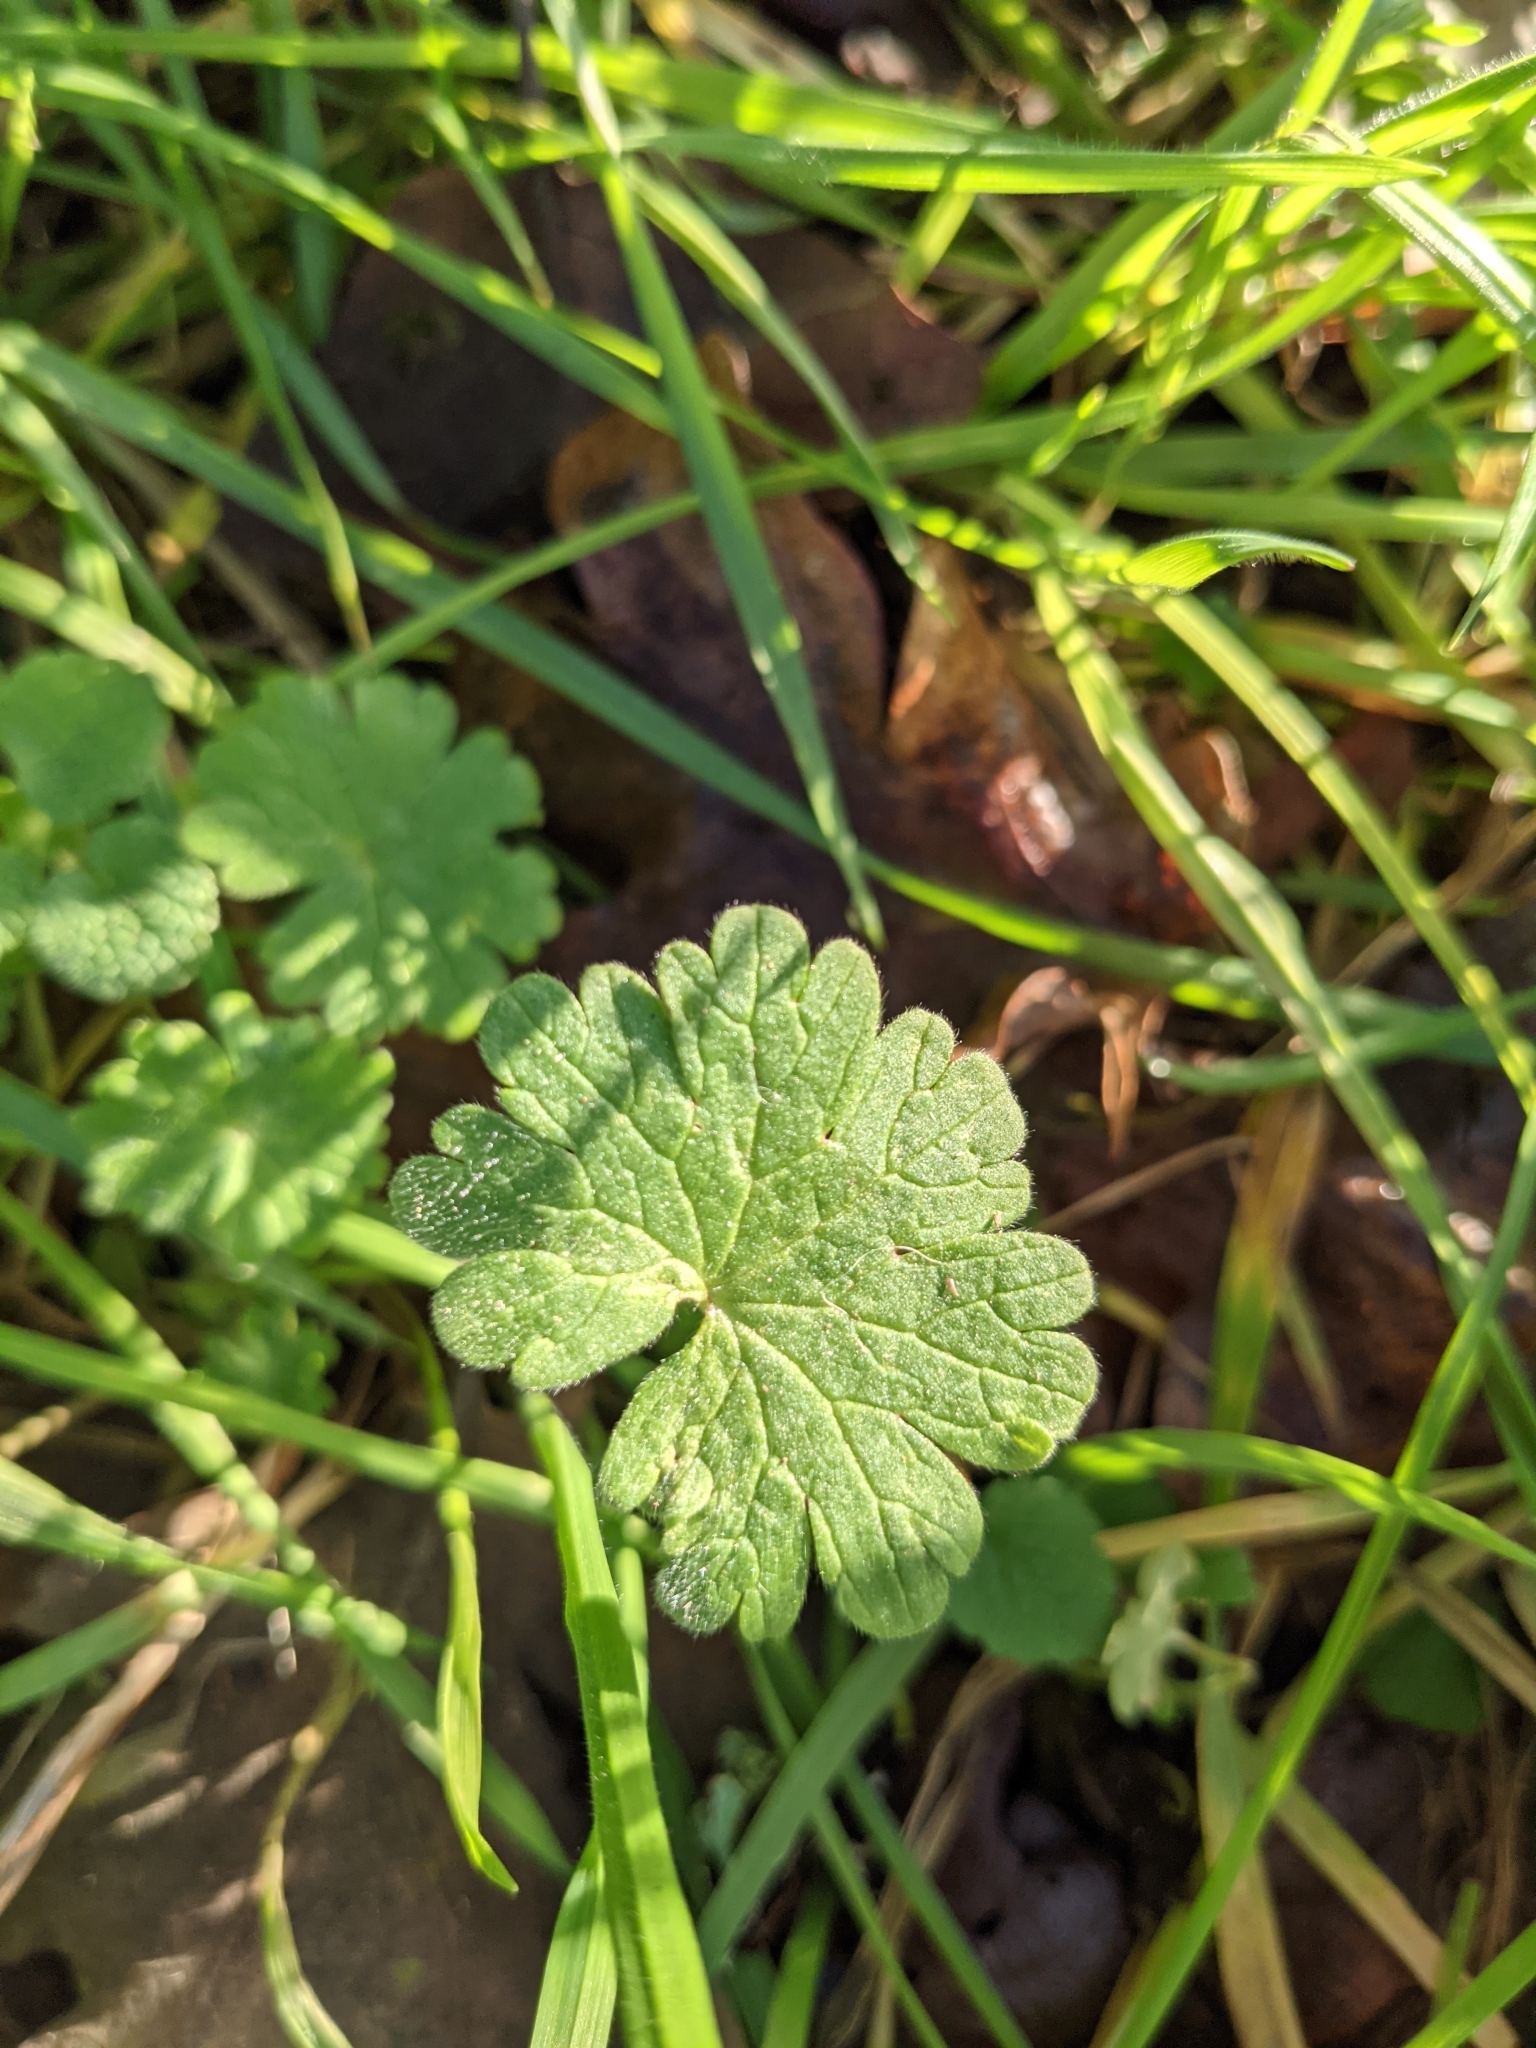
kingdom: Plantae
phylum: Tracheophyta
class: Magnoliopsida
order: Geraniales
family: Geraniaceae
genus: Geranium
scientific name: Geranium molle
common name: Dove's-foot crane's-bill
